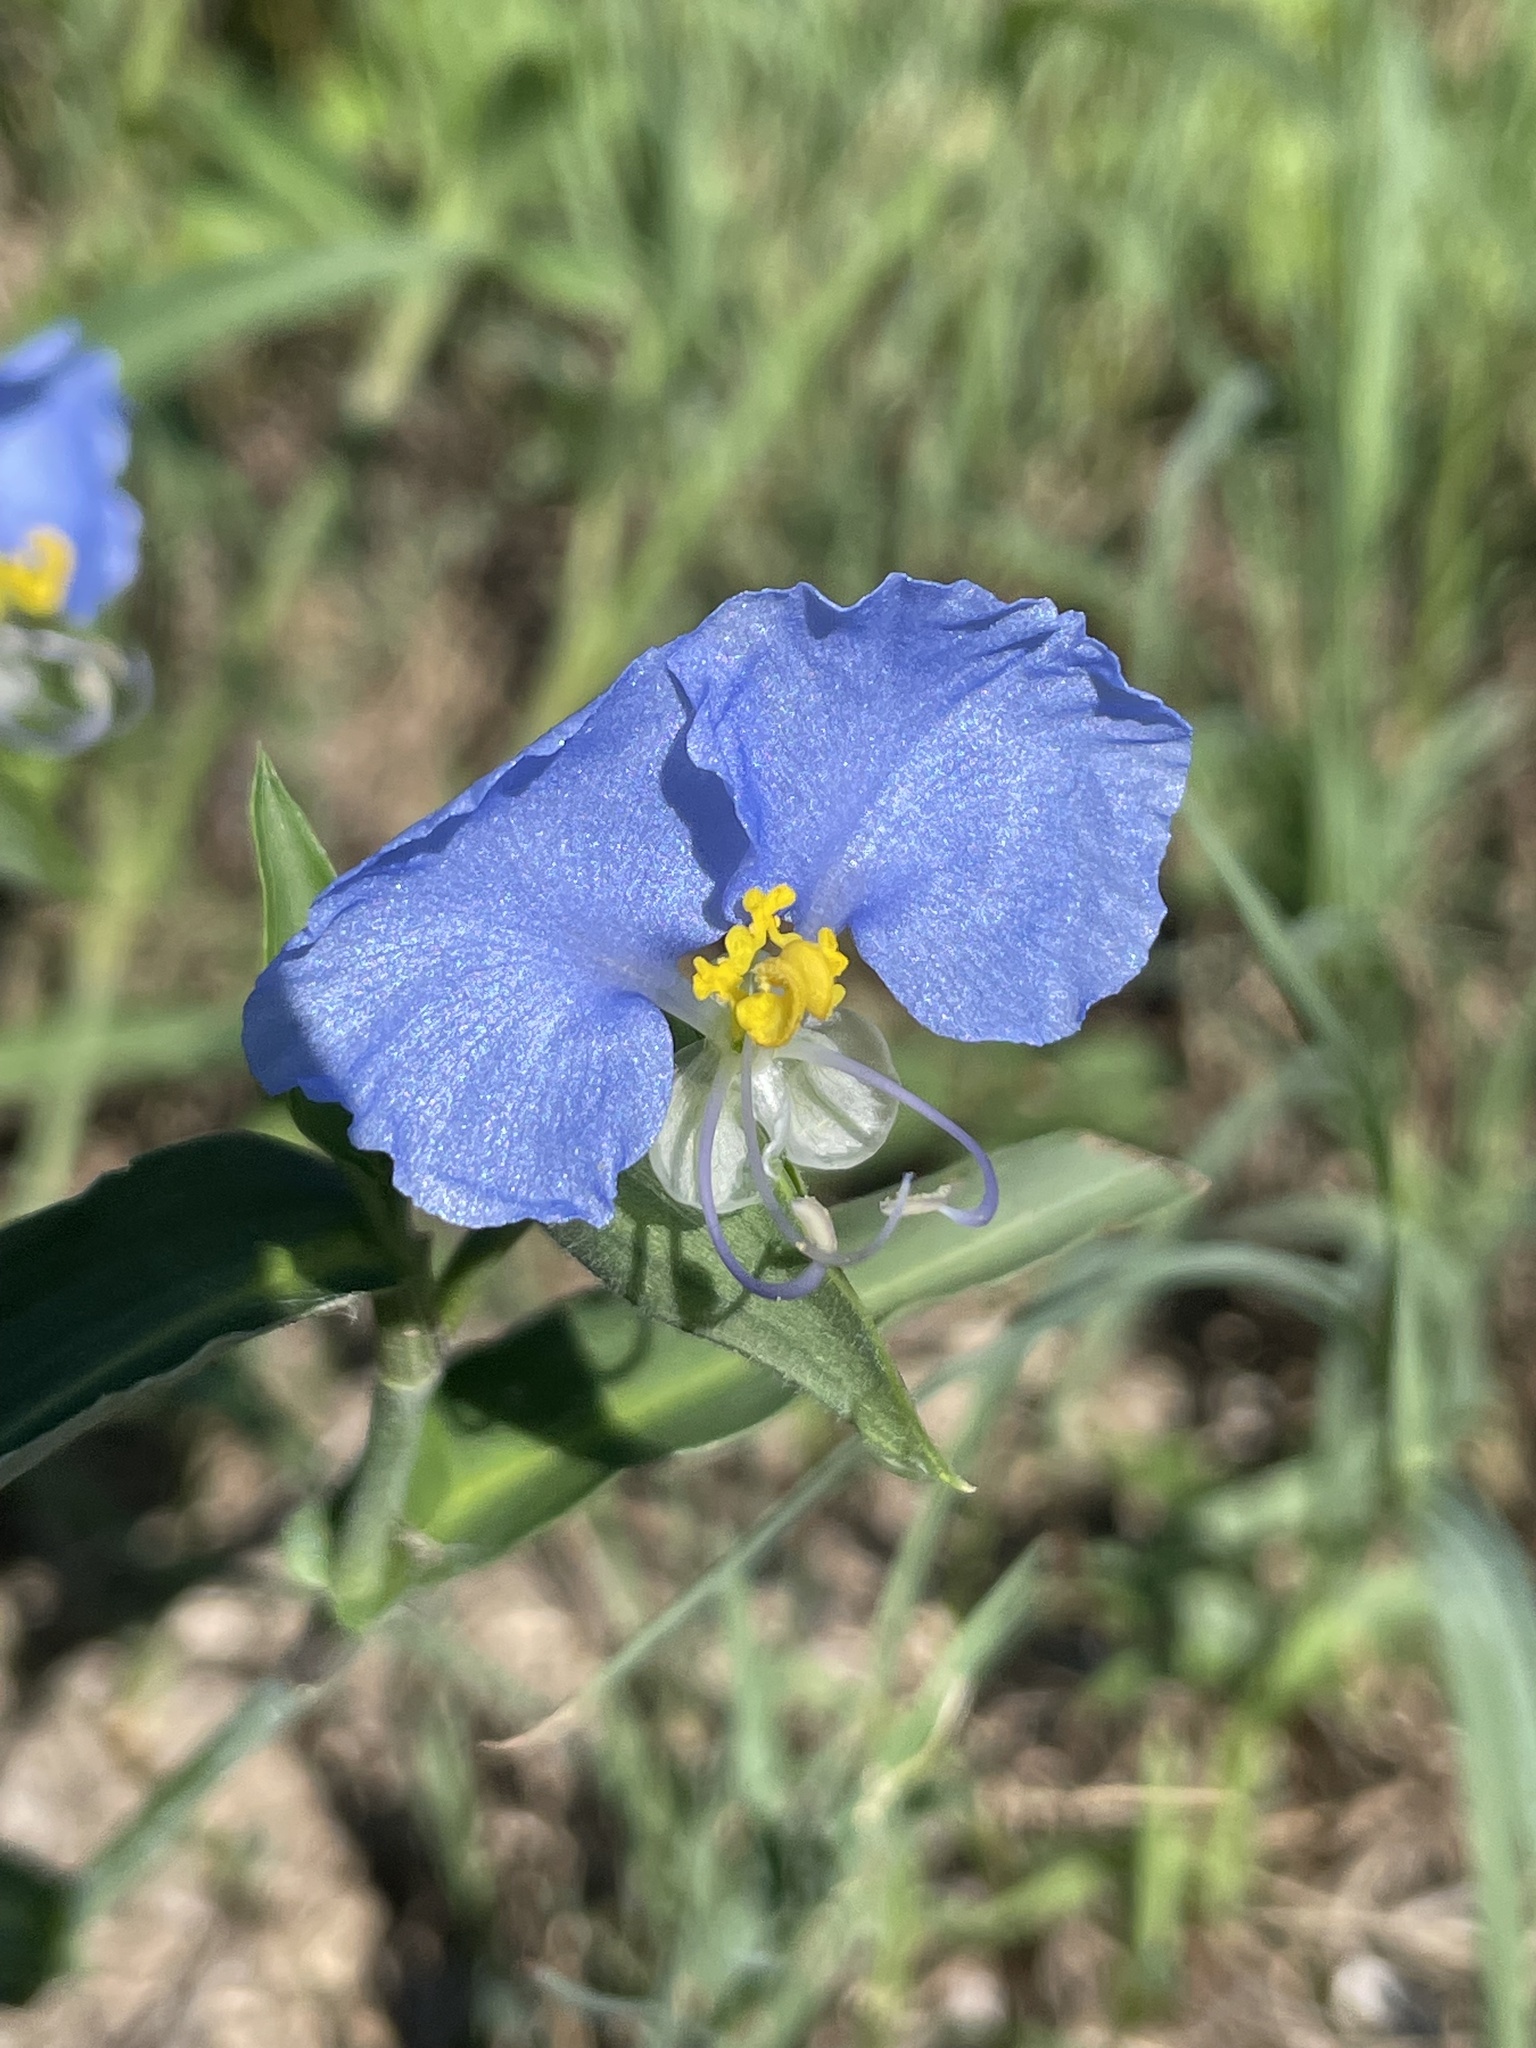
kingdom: Plantae
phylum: Tracheophyta
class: Liliopsida
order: Commelinales
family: Commelinaceae
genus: Commelina
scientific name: Commelina erecta
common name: Blousel blommetjie
